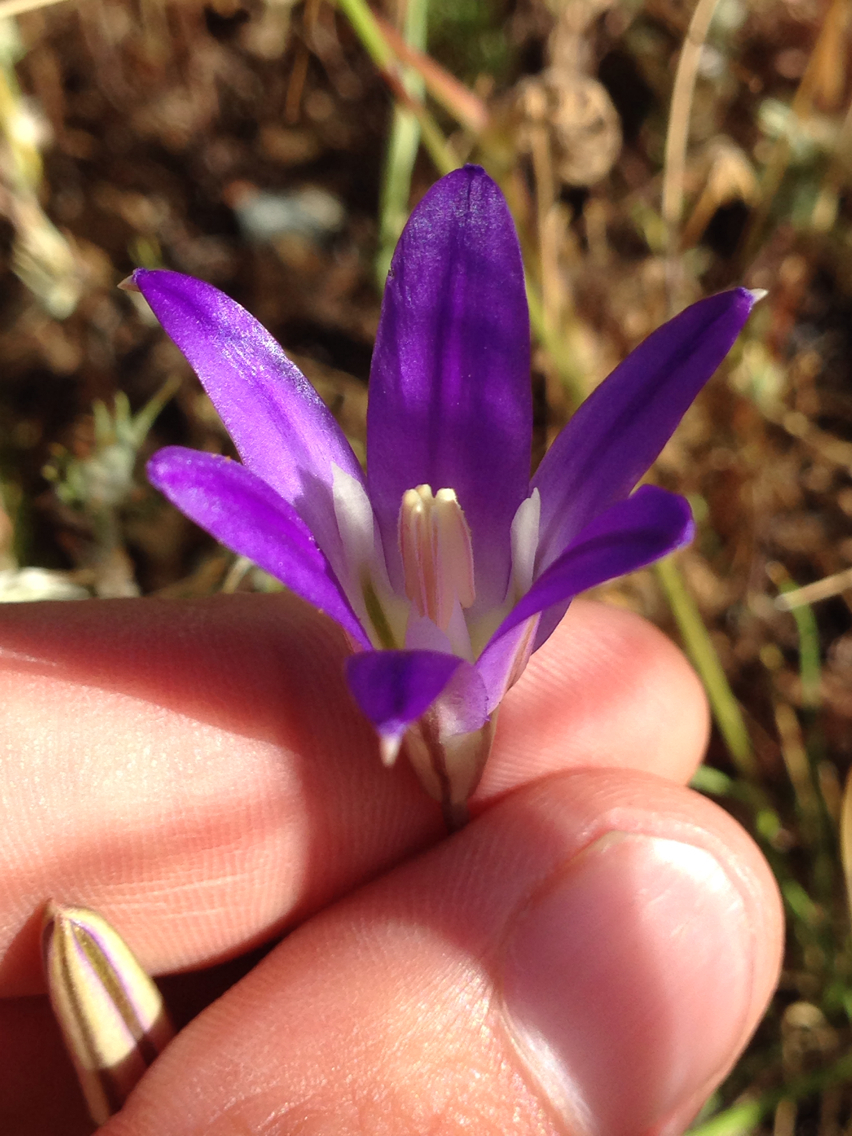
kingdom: Plantae
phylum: Tracheophyta
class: Liliopsida
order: Asparagales
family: Asparagaceae
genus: Brodiaea
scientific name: Brodiaea elegans
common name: Elegant cluster-lily
